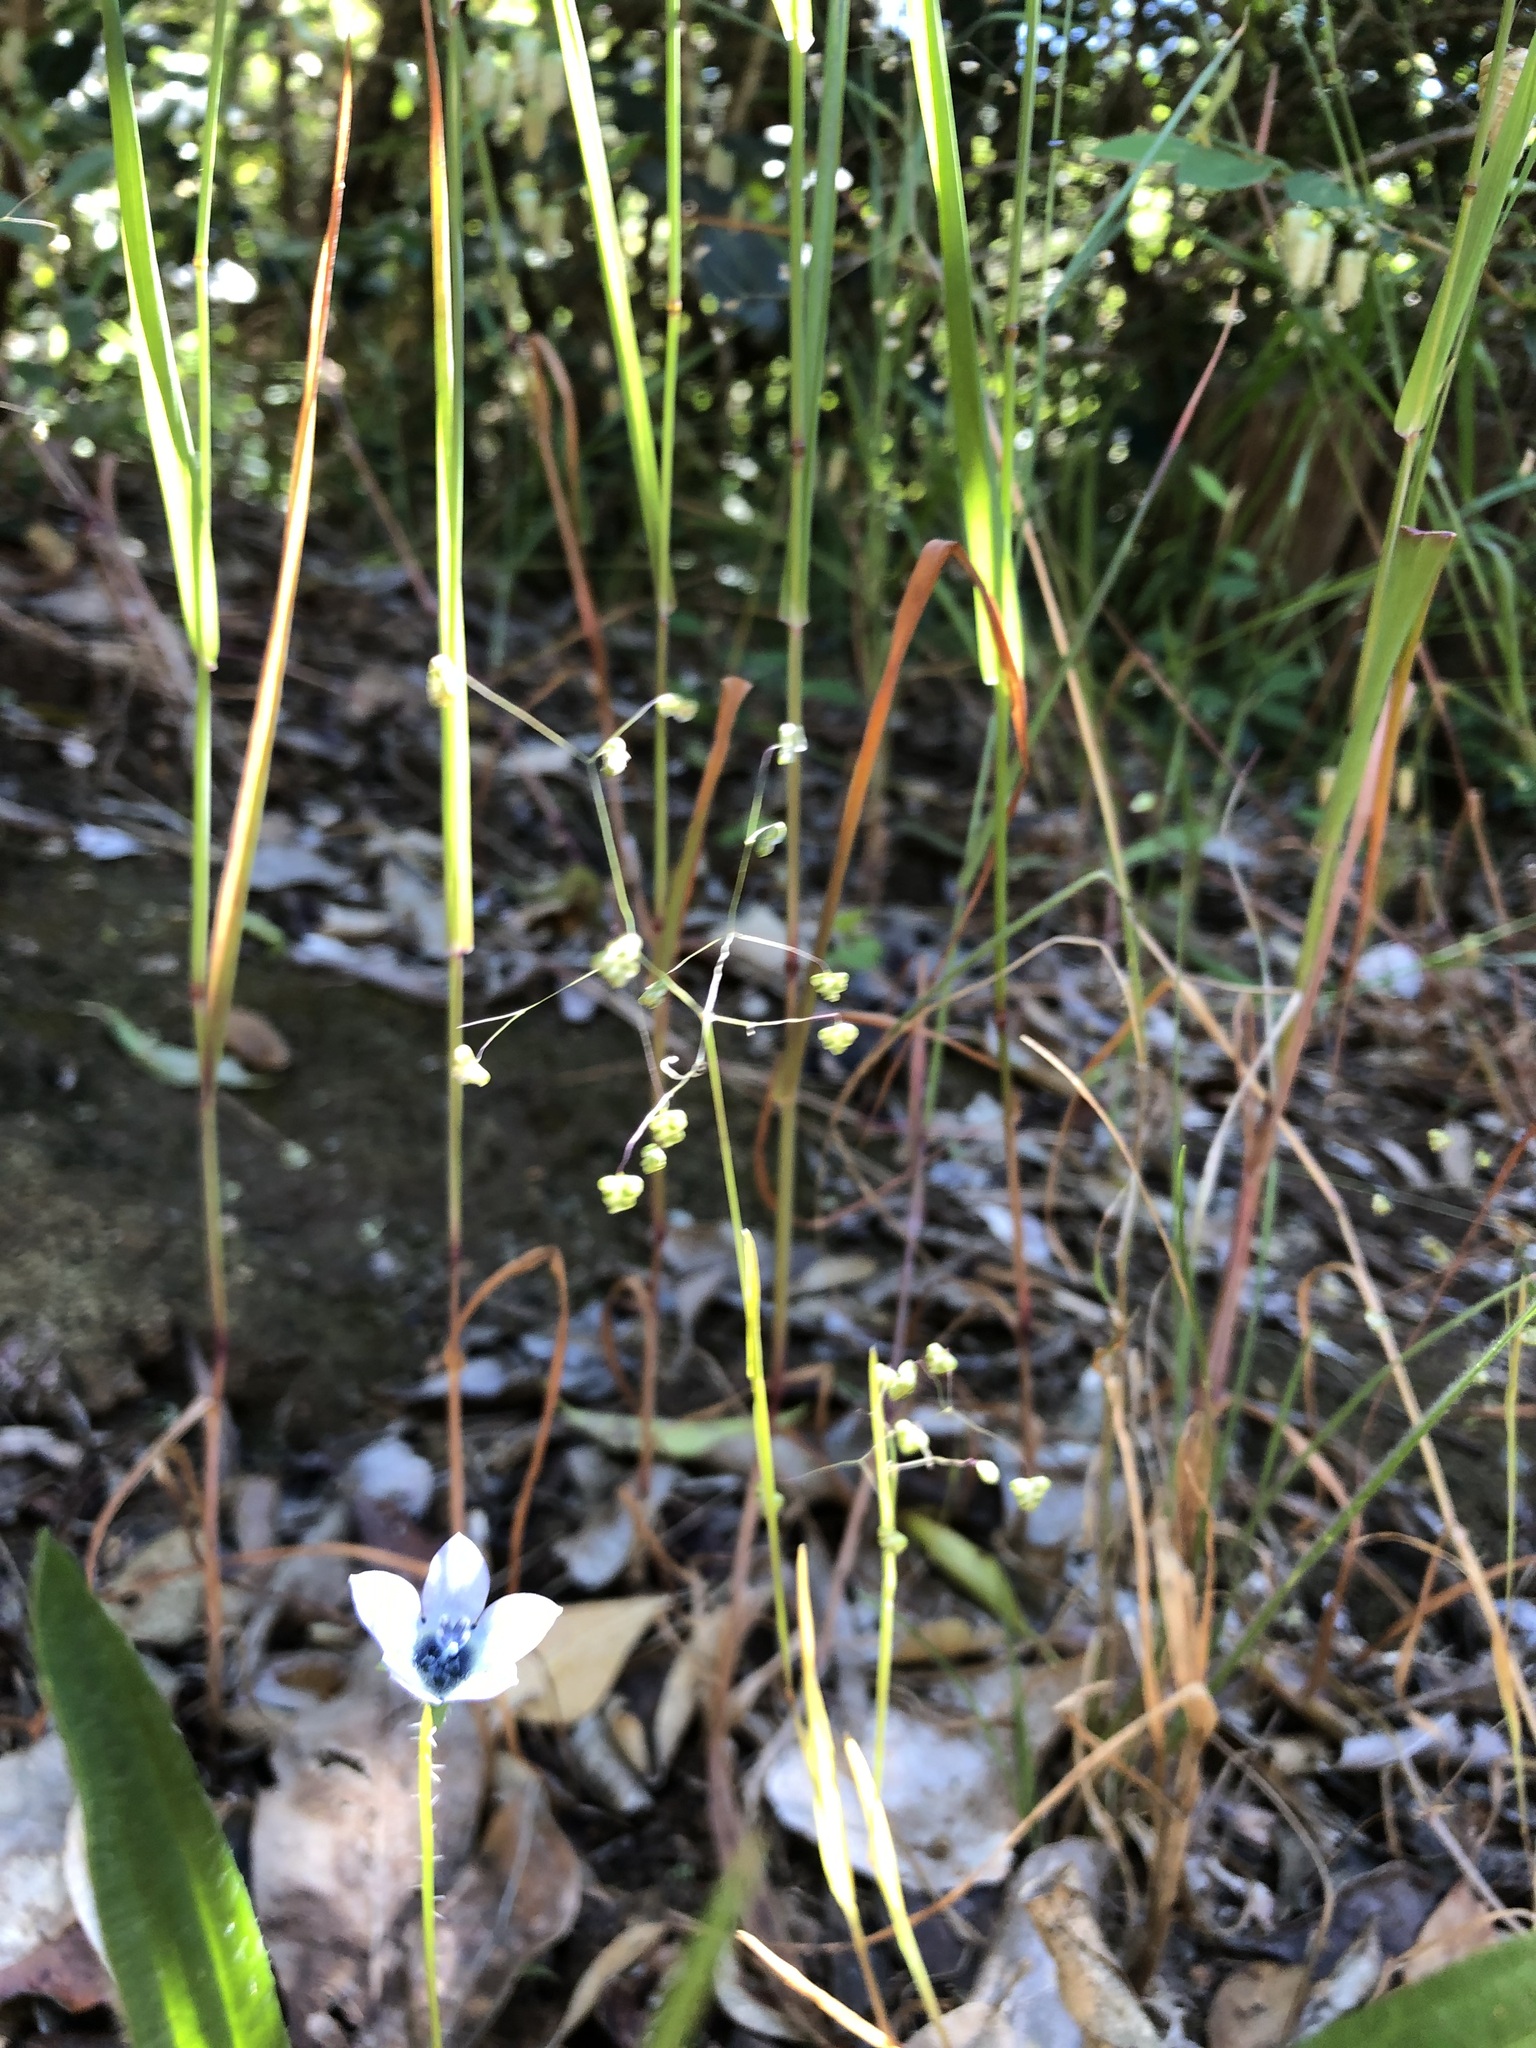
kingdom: Plantae
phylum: Tracheophyta
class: Liliopsida
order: Poales
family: Poaceae
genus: Briza
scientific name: Briza minor
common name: Lesser quaking-grass
